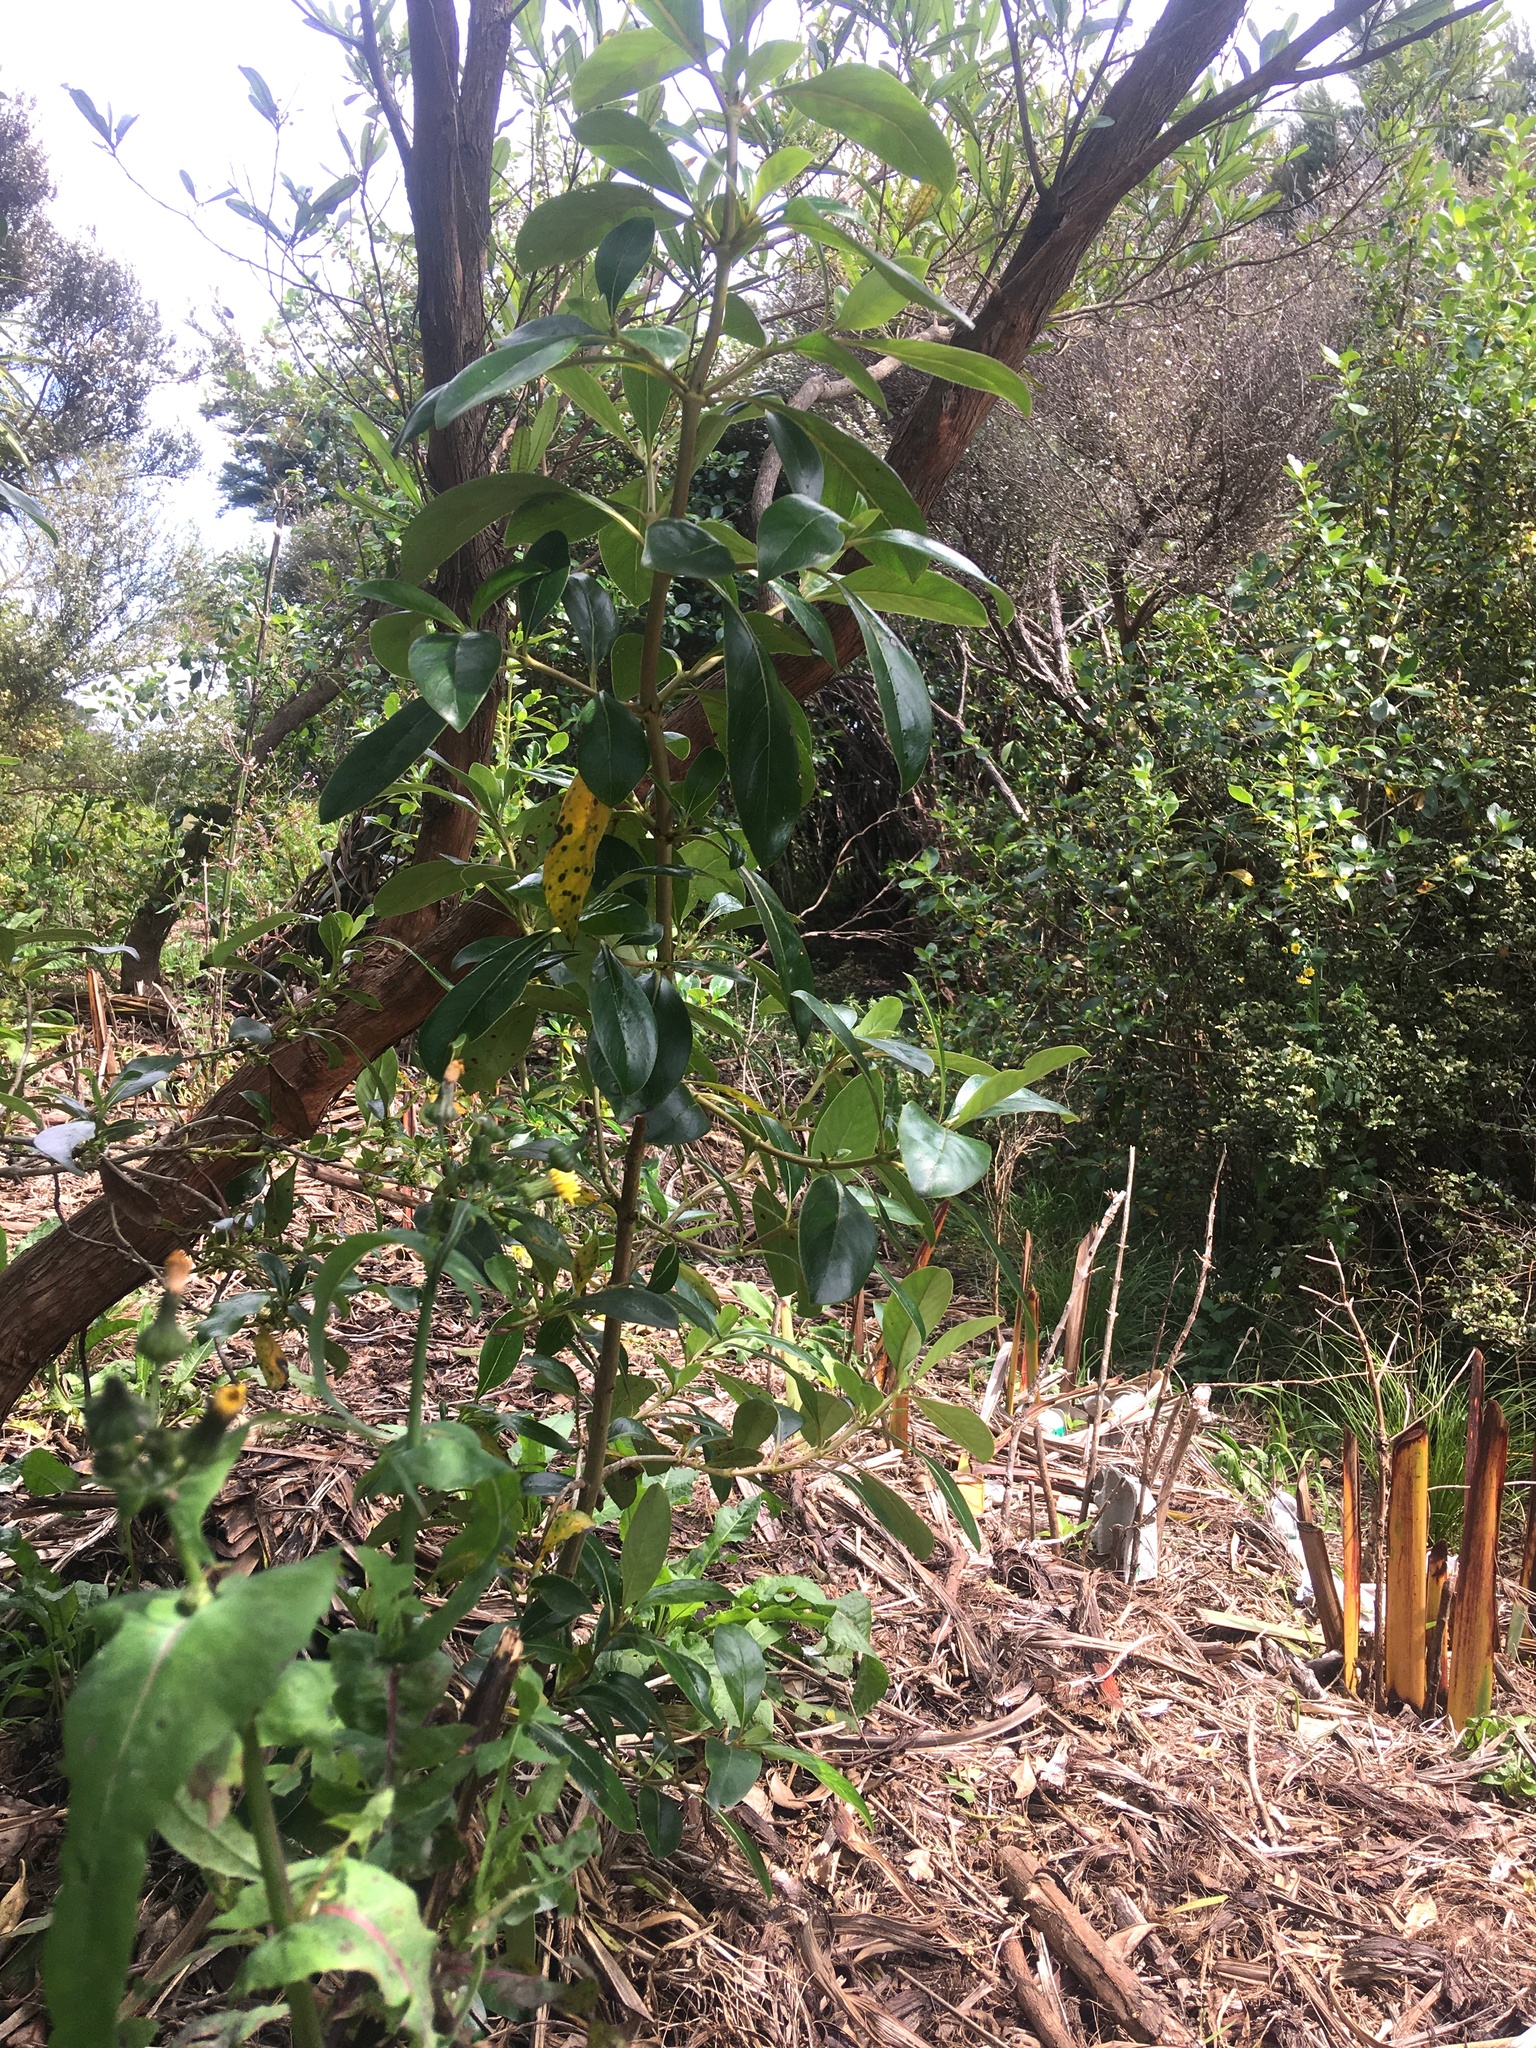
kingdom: Plantae
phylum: Tracheophyta
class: Magnoliopsida
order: Gentianales
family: Rubiaceae
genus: Coprosma
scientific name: Coprosma robusta
